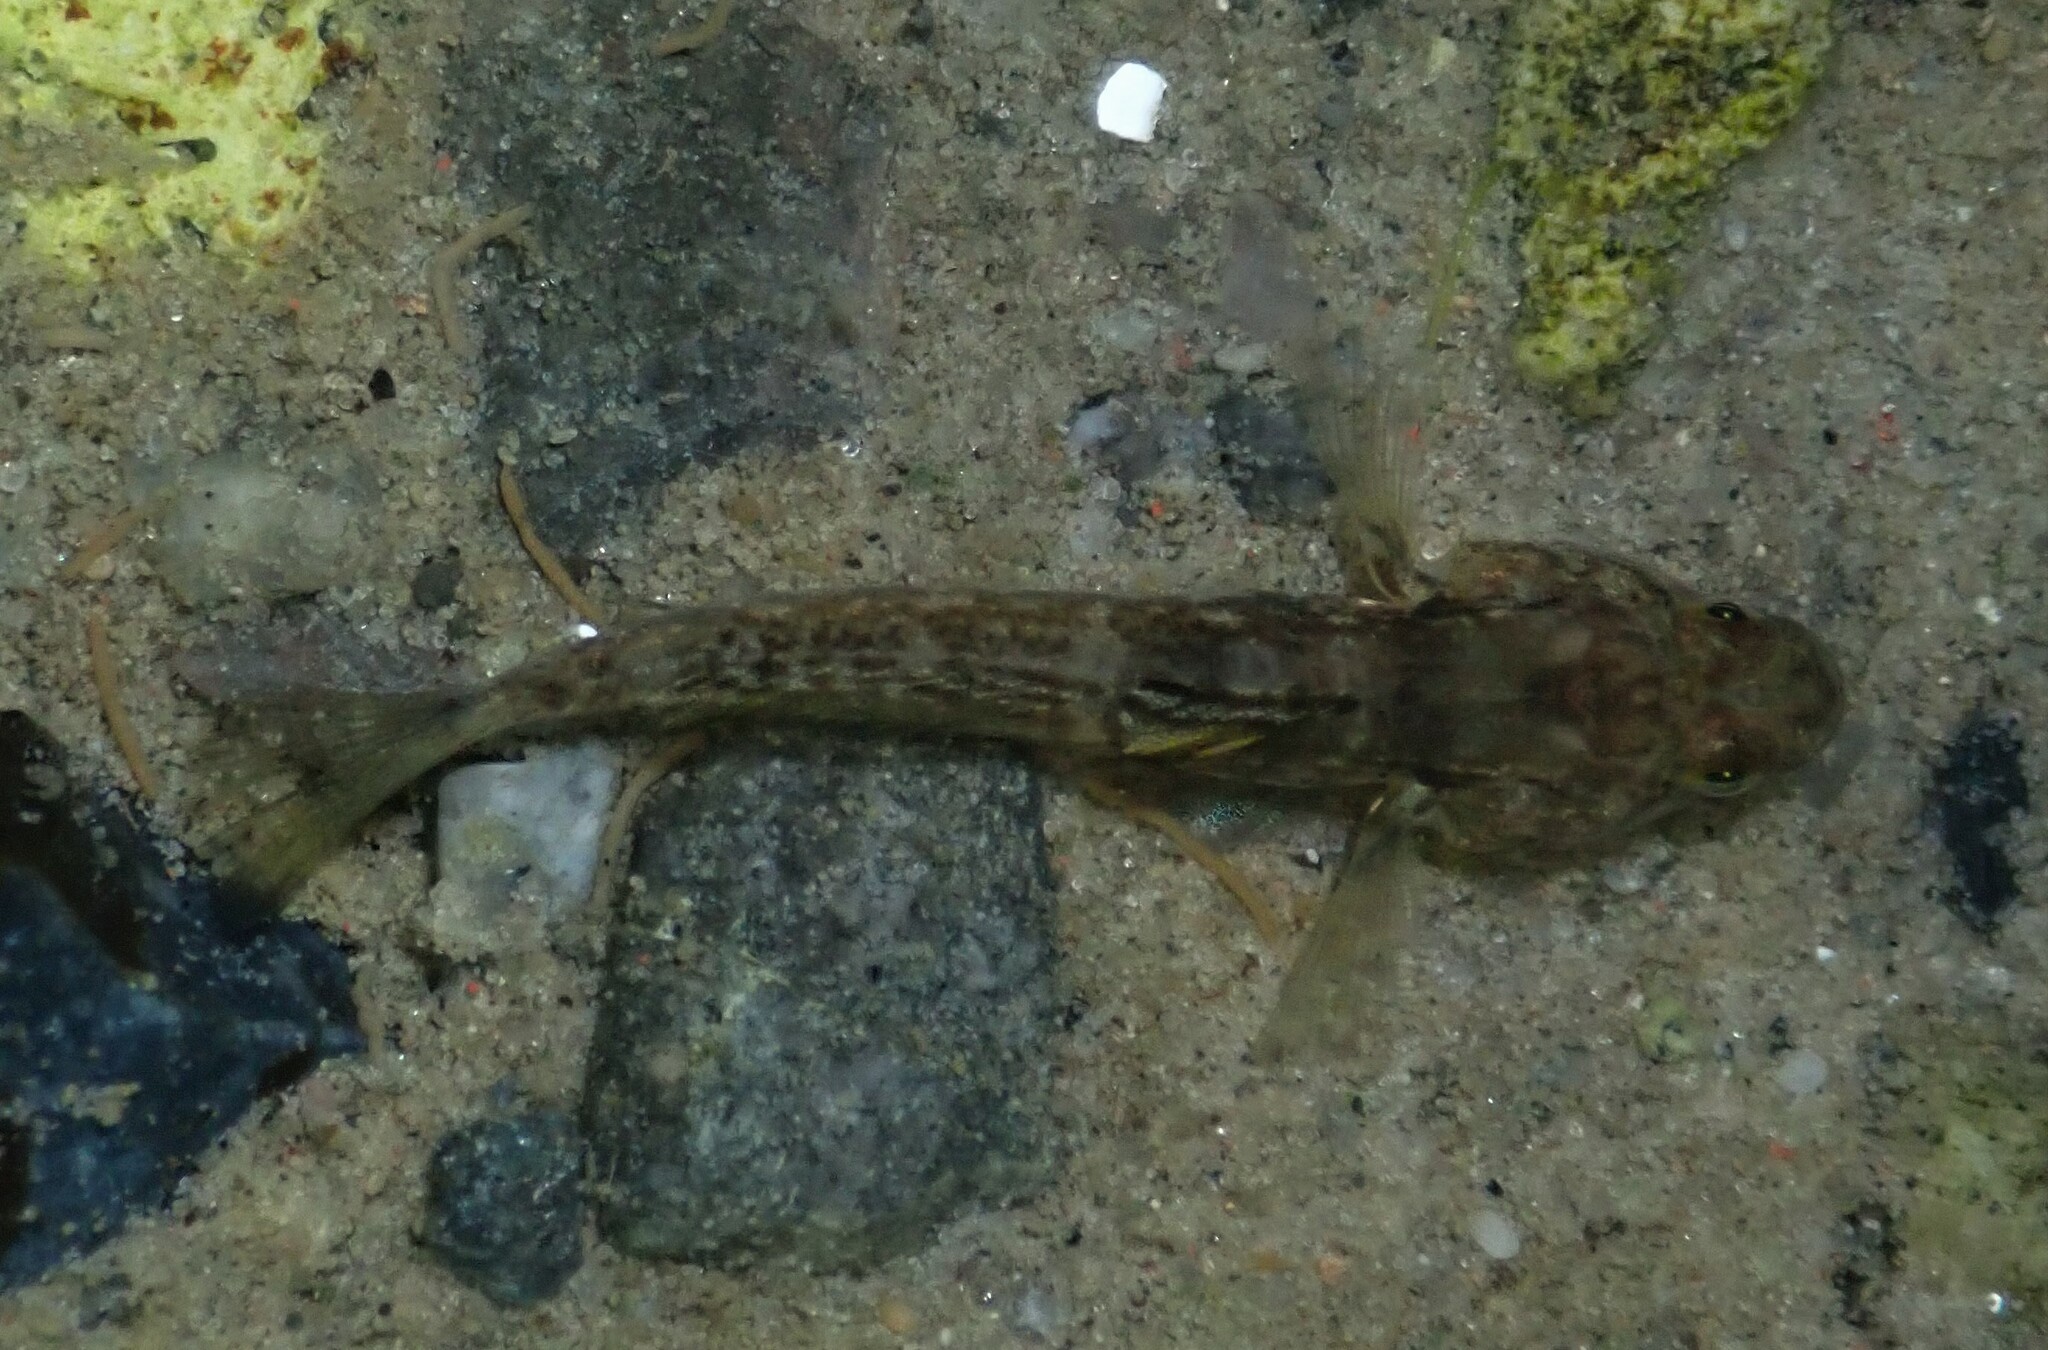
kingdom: Animalia
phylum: Chordata
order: Perciformes
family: Gobiidae
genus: Gobius
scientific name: Gobius niger
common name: Black goby
